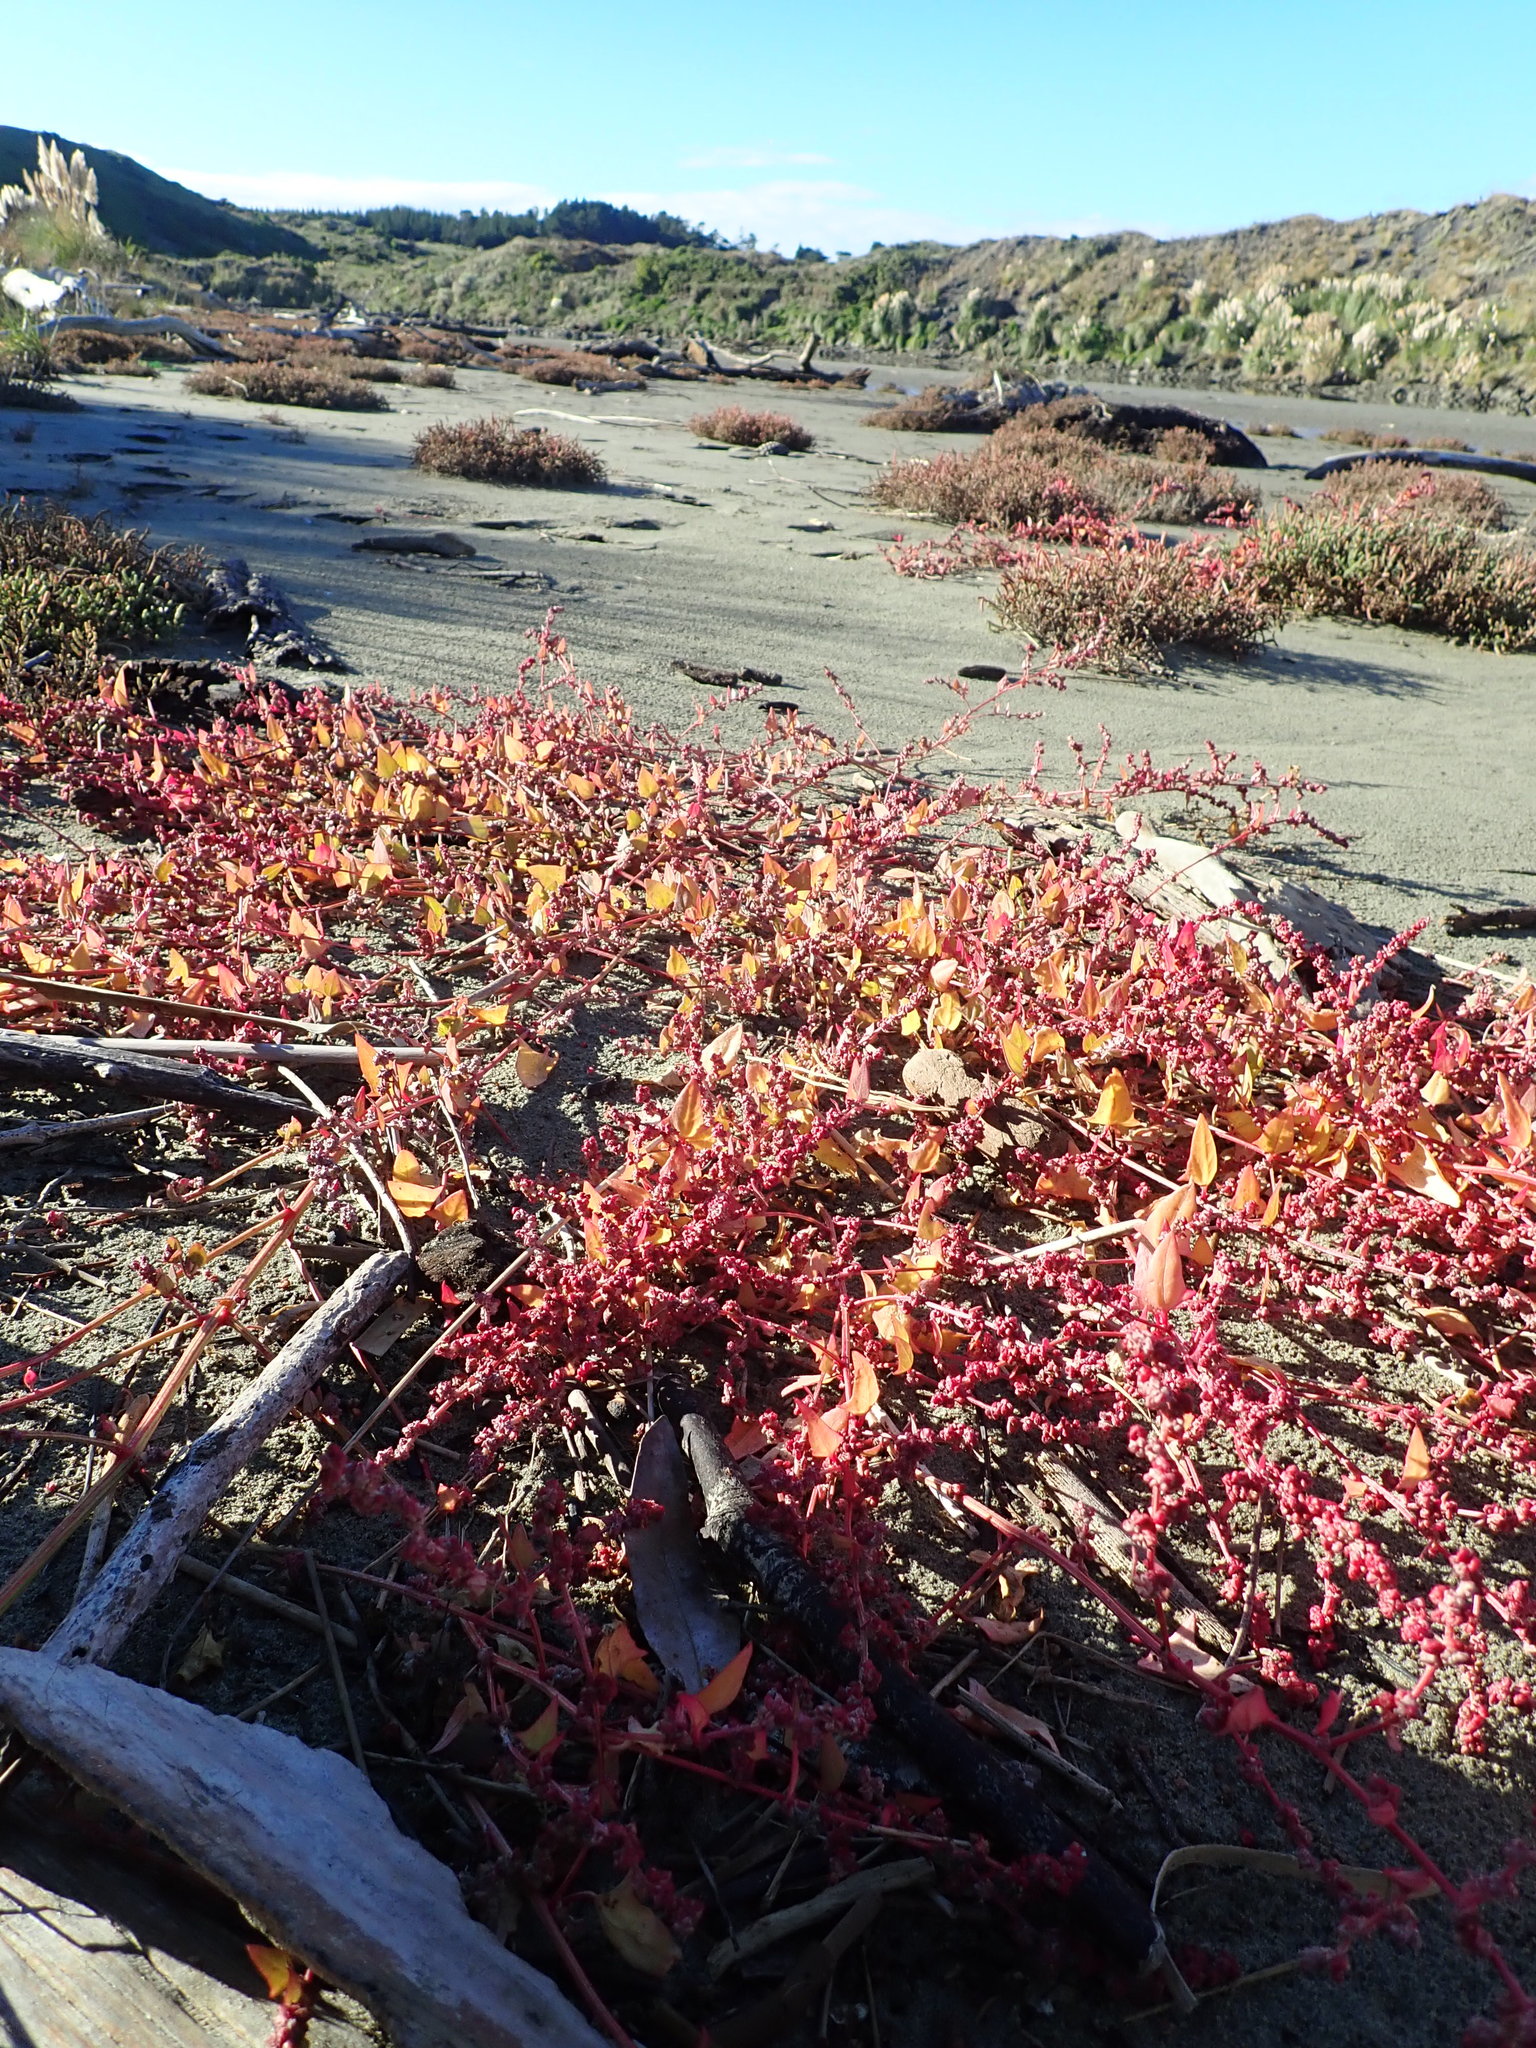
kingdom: Plantae
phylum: Tracheophyta
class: Magnoliopsida
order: Caryophyllales
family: Amaranthaceae
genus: Atriplex
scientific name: Atriplex prostrata
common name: Spear-leaved orache
